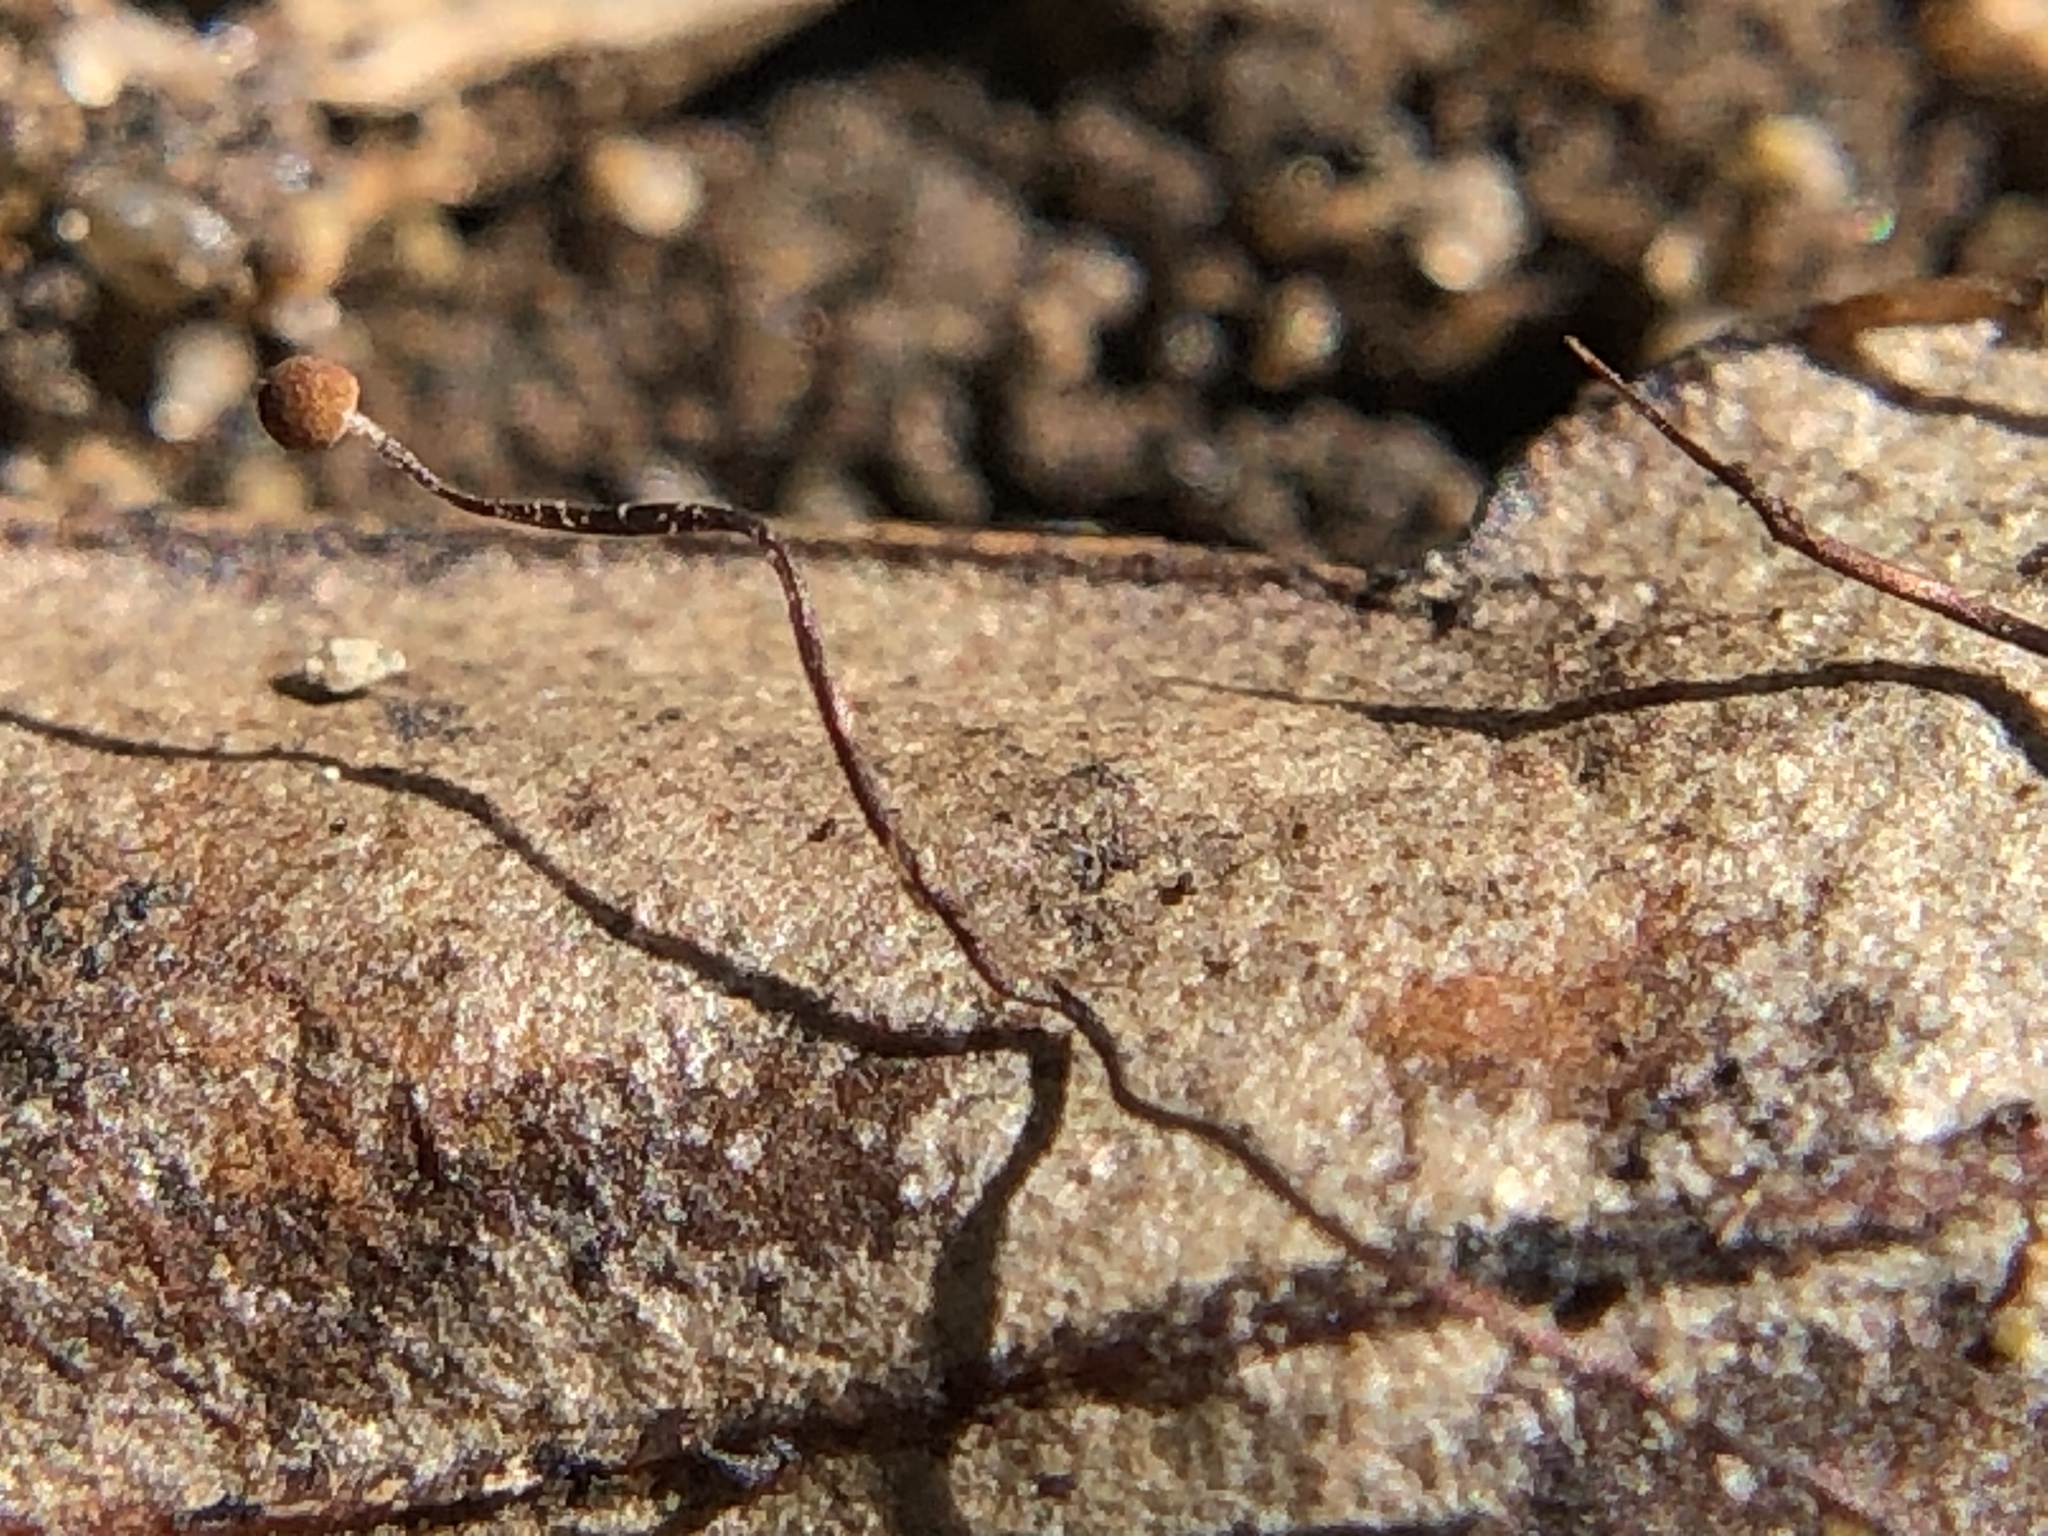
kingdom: Fungi
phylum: Basidiomycota
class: Agaricomycetes
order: Agaricales
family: Physalacriaceae
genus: Cryptomarasmius
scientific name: Cryptomarasmius corbariensis
